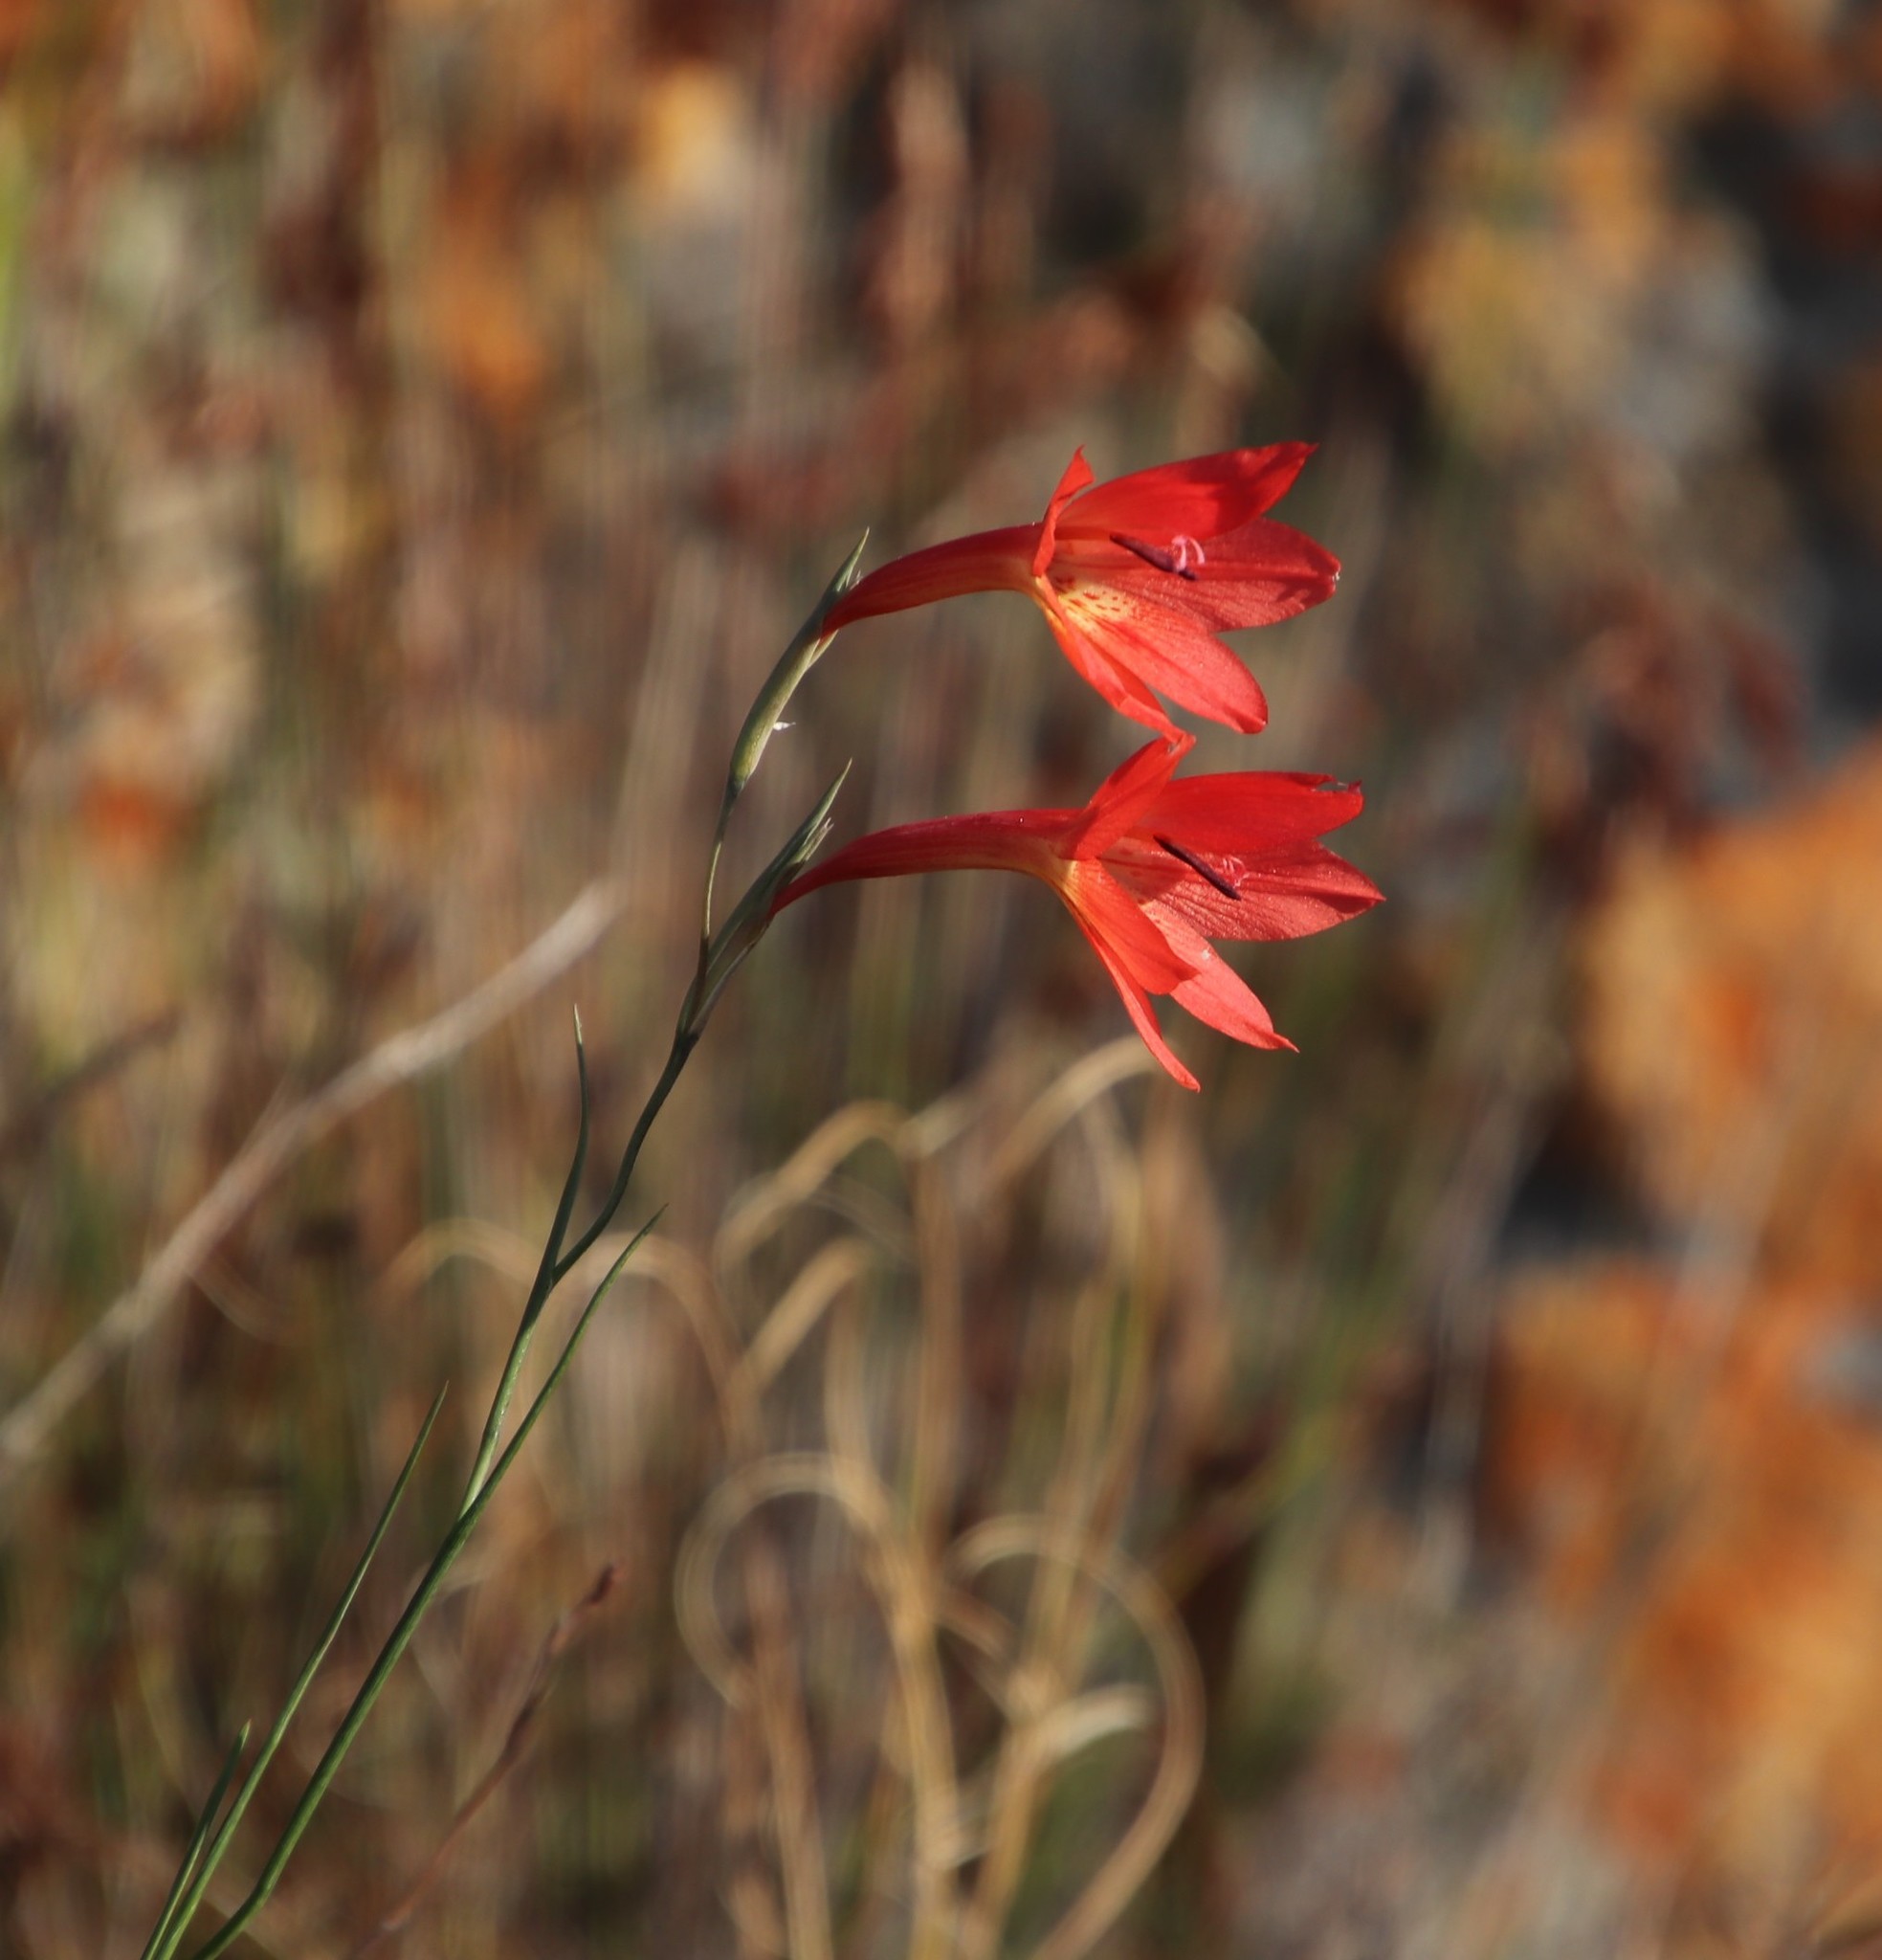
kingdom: Plantae
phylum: Tracheophyta
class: Liliopsida
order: Asparagales
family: Iridaceae
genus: Gladiolus
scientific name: Gladiolus priorii
